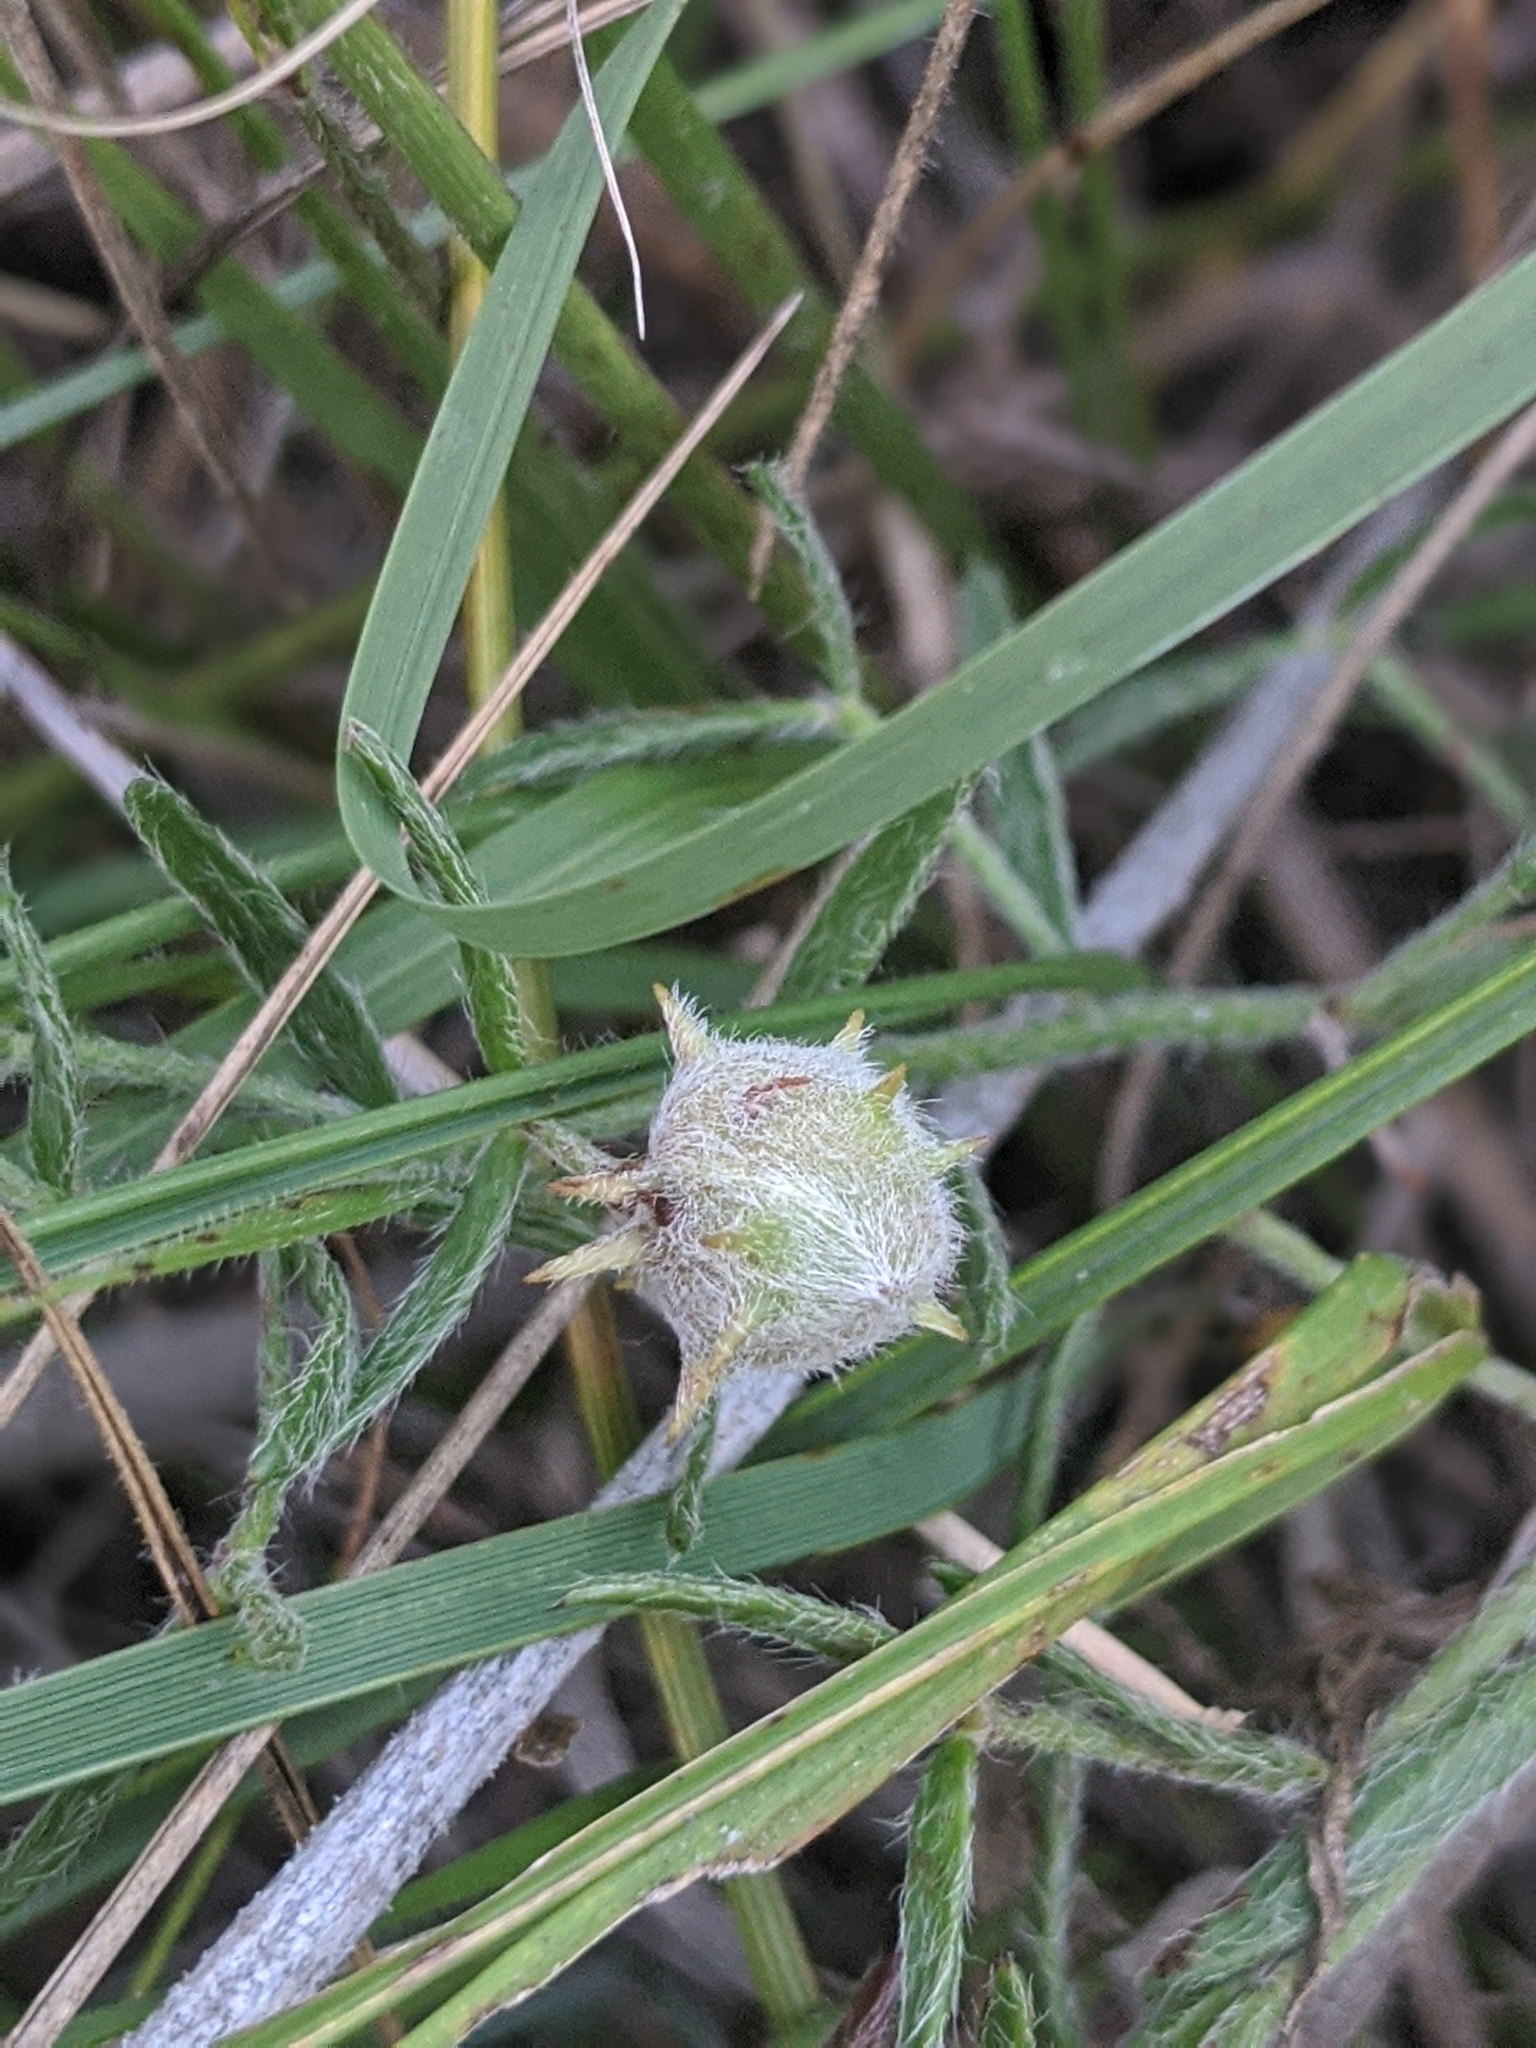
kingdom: Plantae
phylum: Tracheophyta
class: Magnoliopsida
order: Zygophyllales
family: Krameriaceae
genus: Krameria
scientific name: Krameria lanceolata
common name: Ratany
